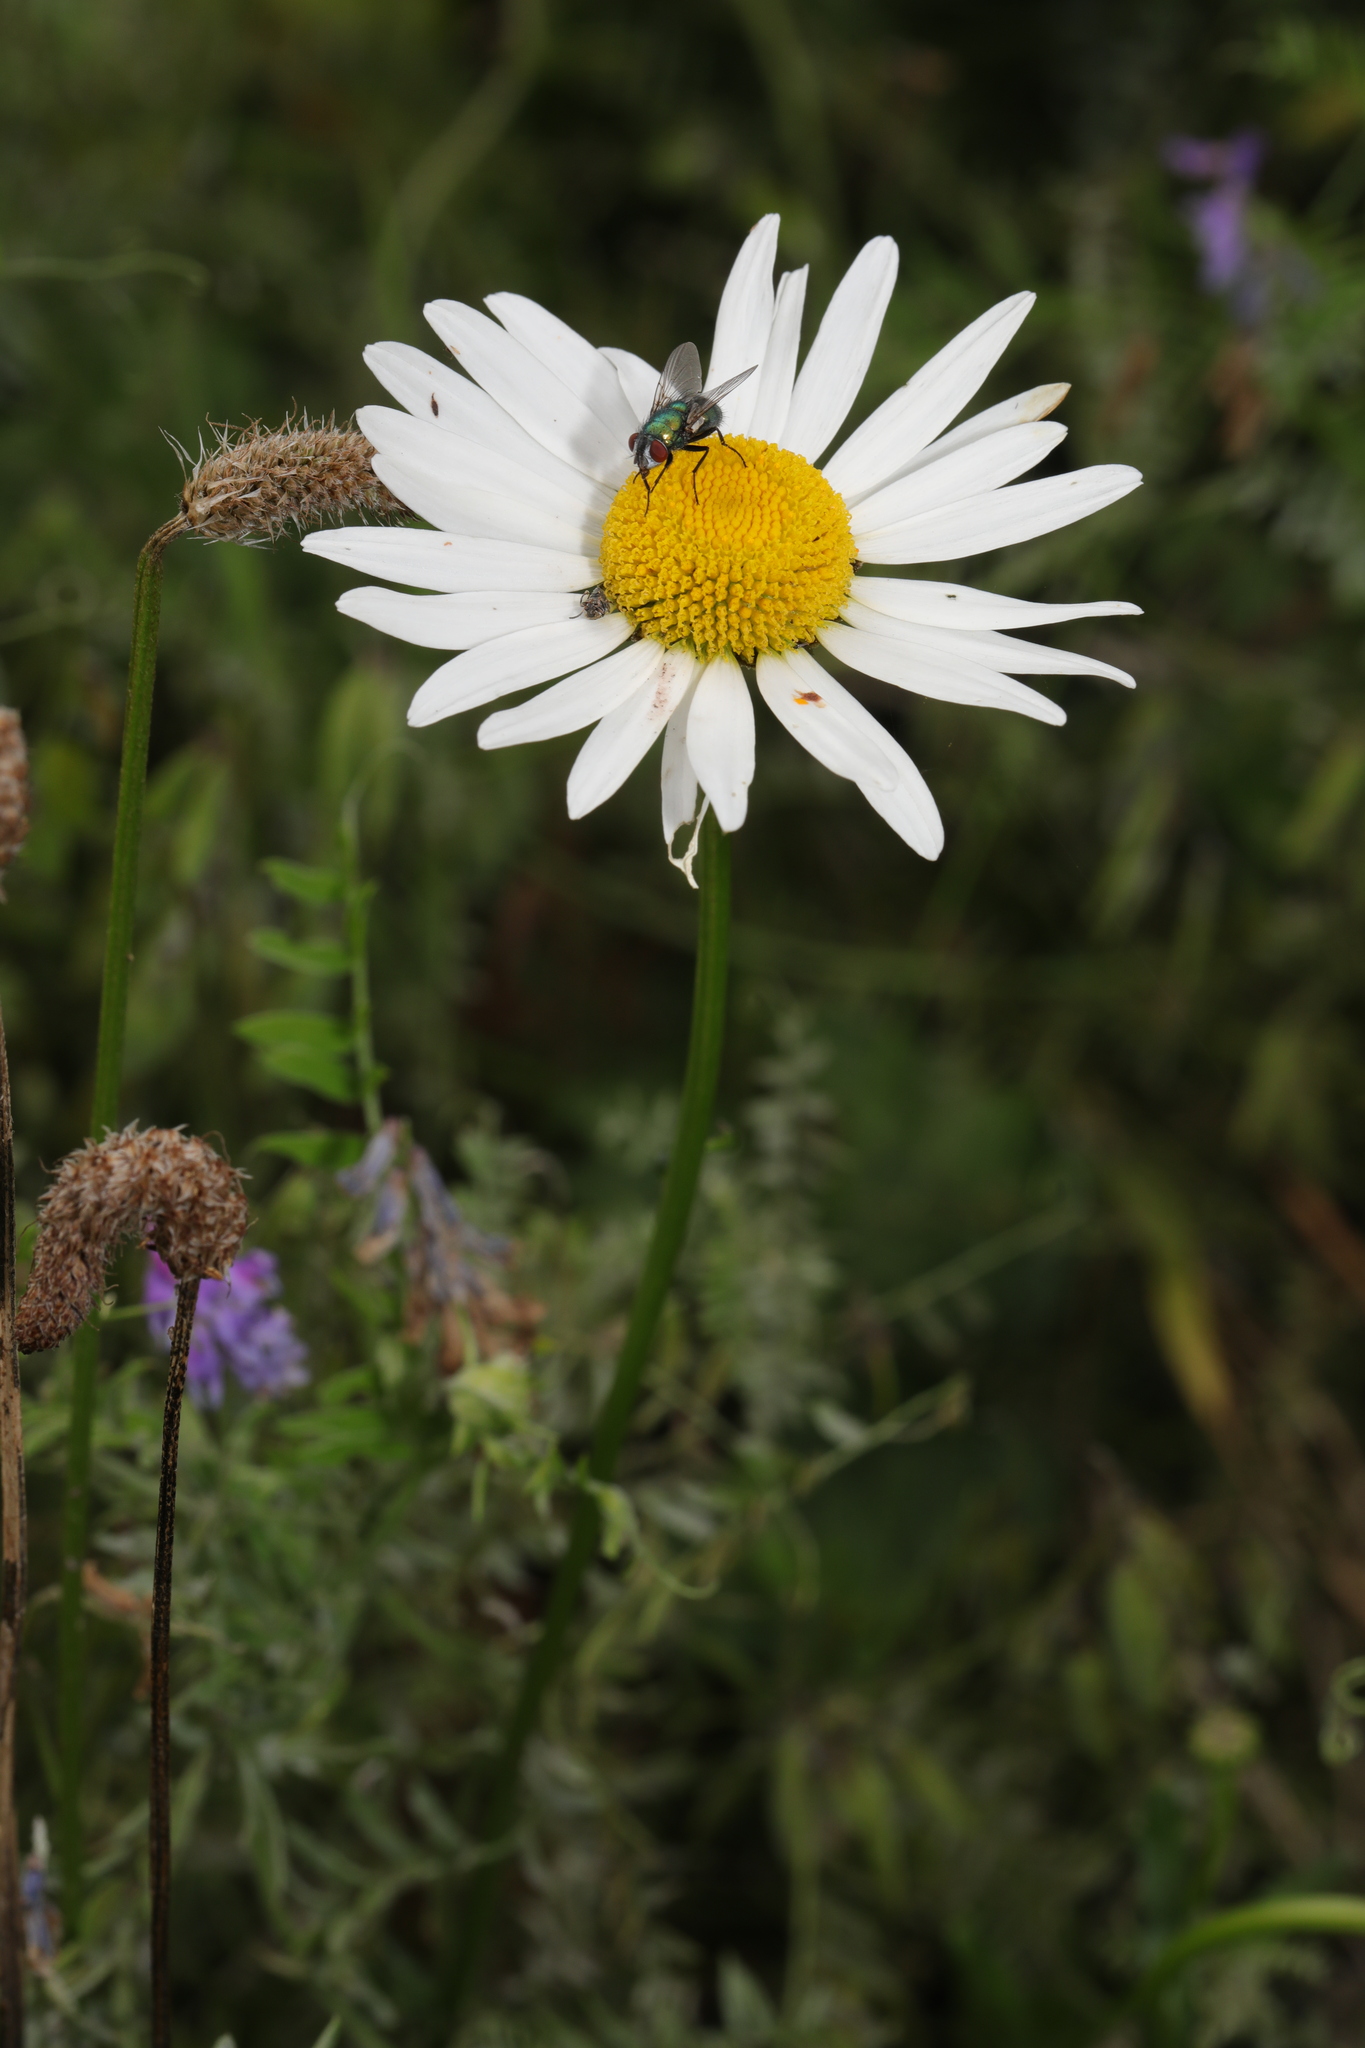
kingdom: Plantae
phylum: Tracheophyta
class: Magnoliopsida
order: Asterales
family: Asteraceae
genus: Leucanthemum
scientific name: Leucanthemum vulgare
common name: Oxeye daisy
